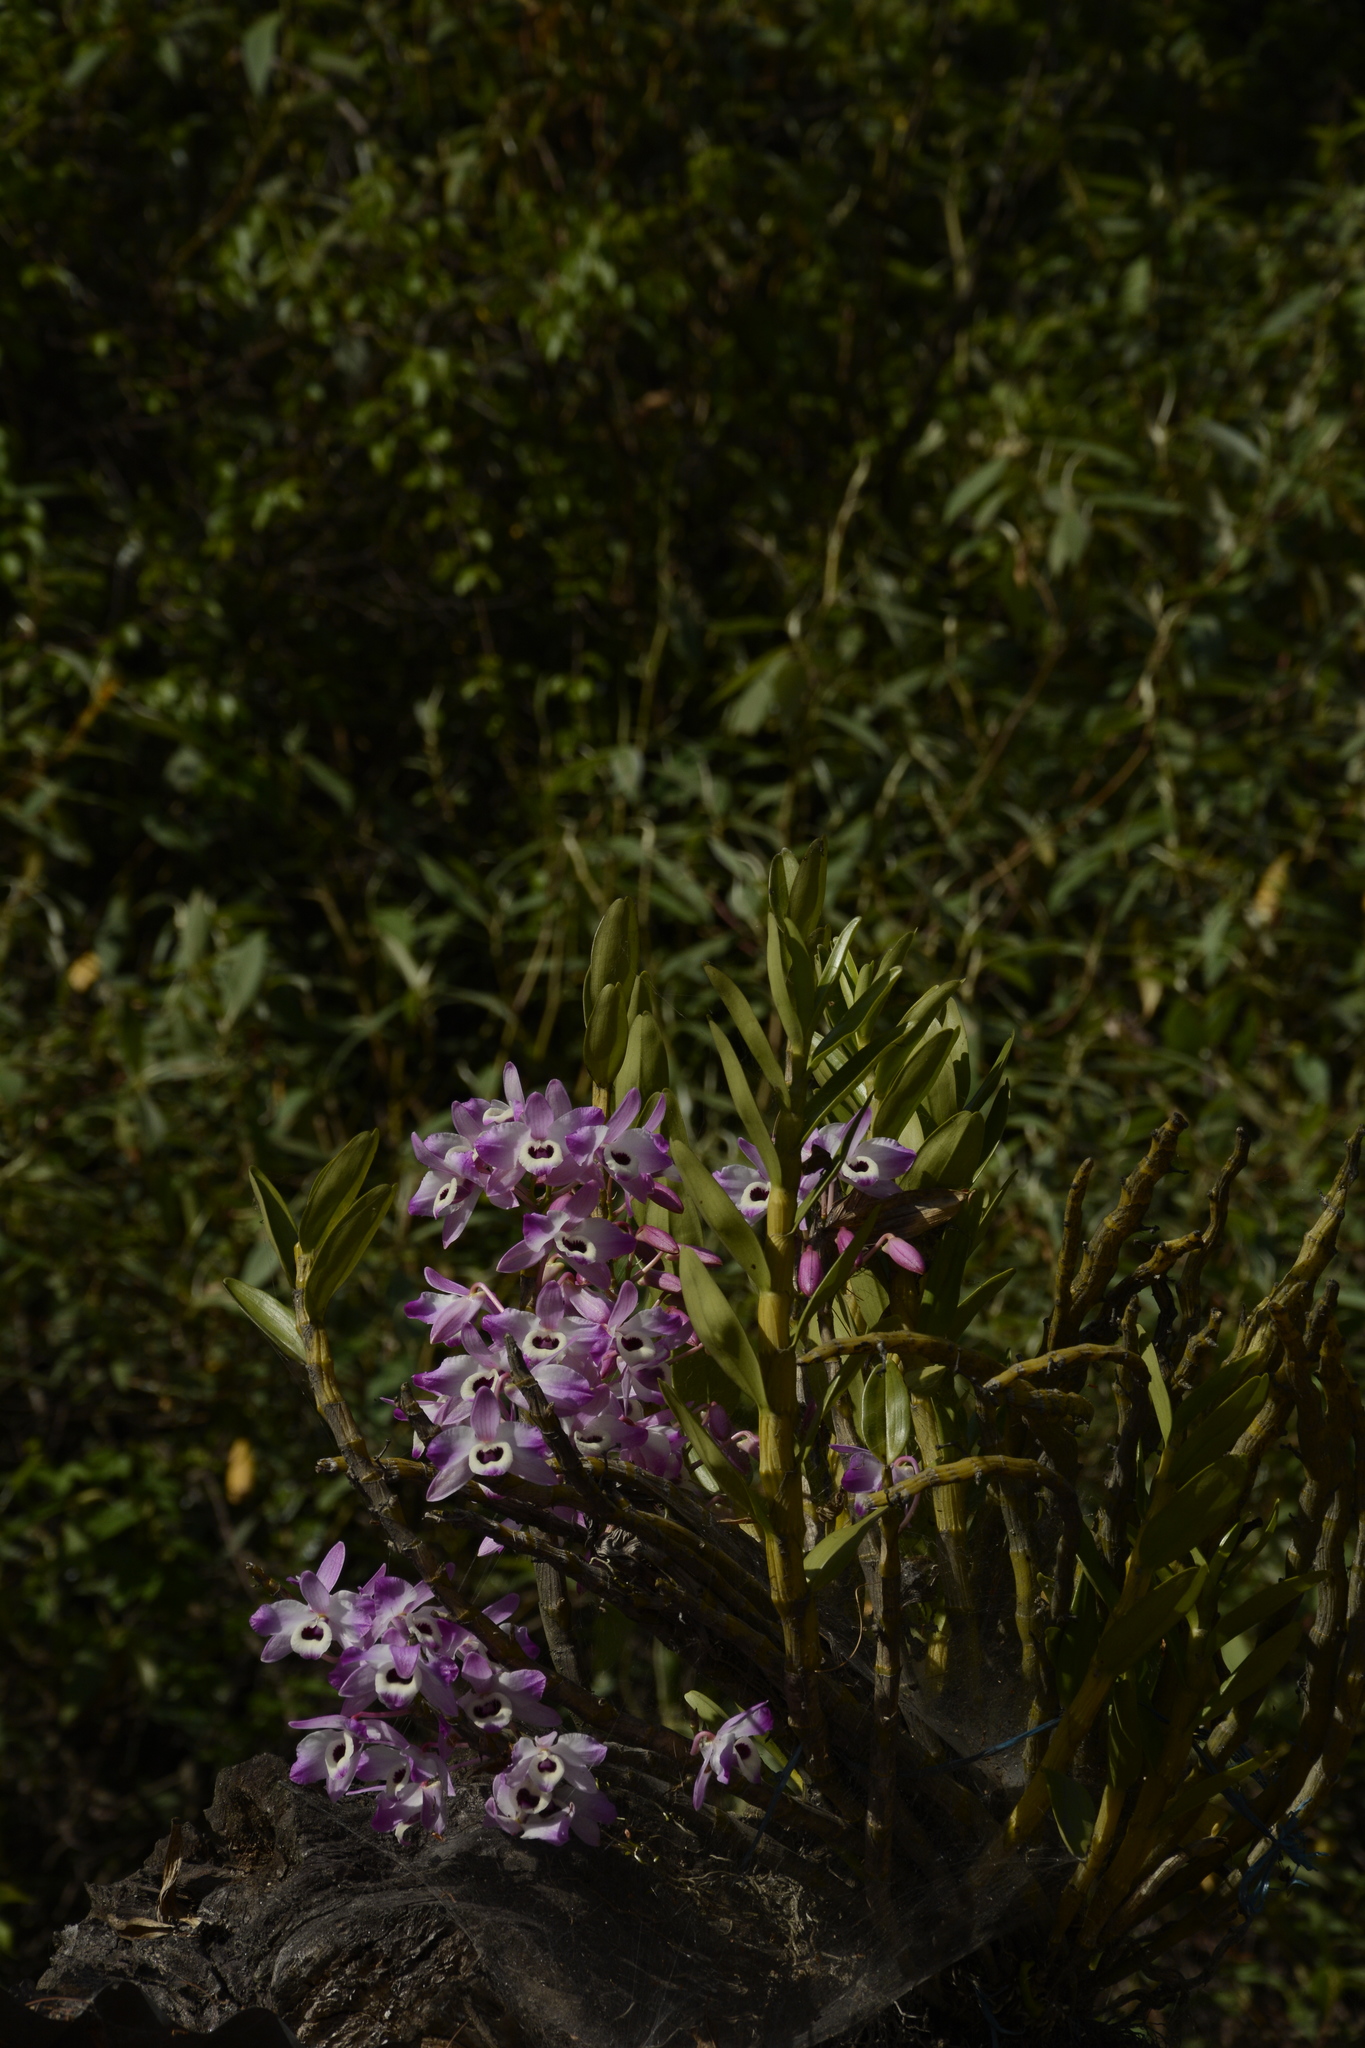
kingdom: Plantae
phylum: Tracheophyta
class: Liliopsida
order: Asparagales
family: Orchidaceae
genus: Dendrobium
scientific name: Dendrobium nobile
